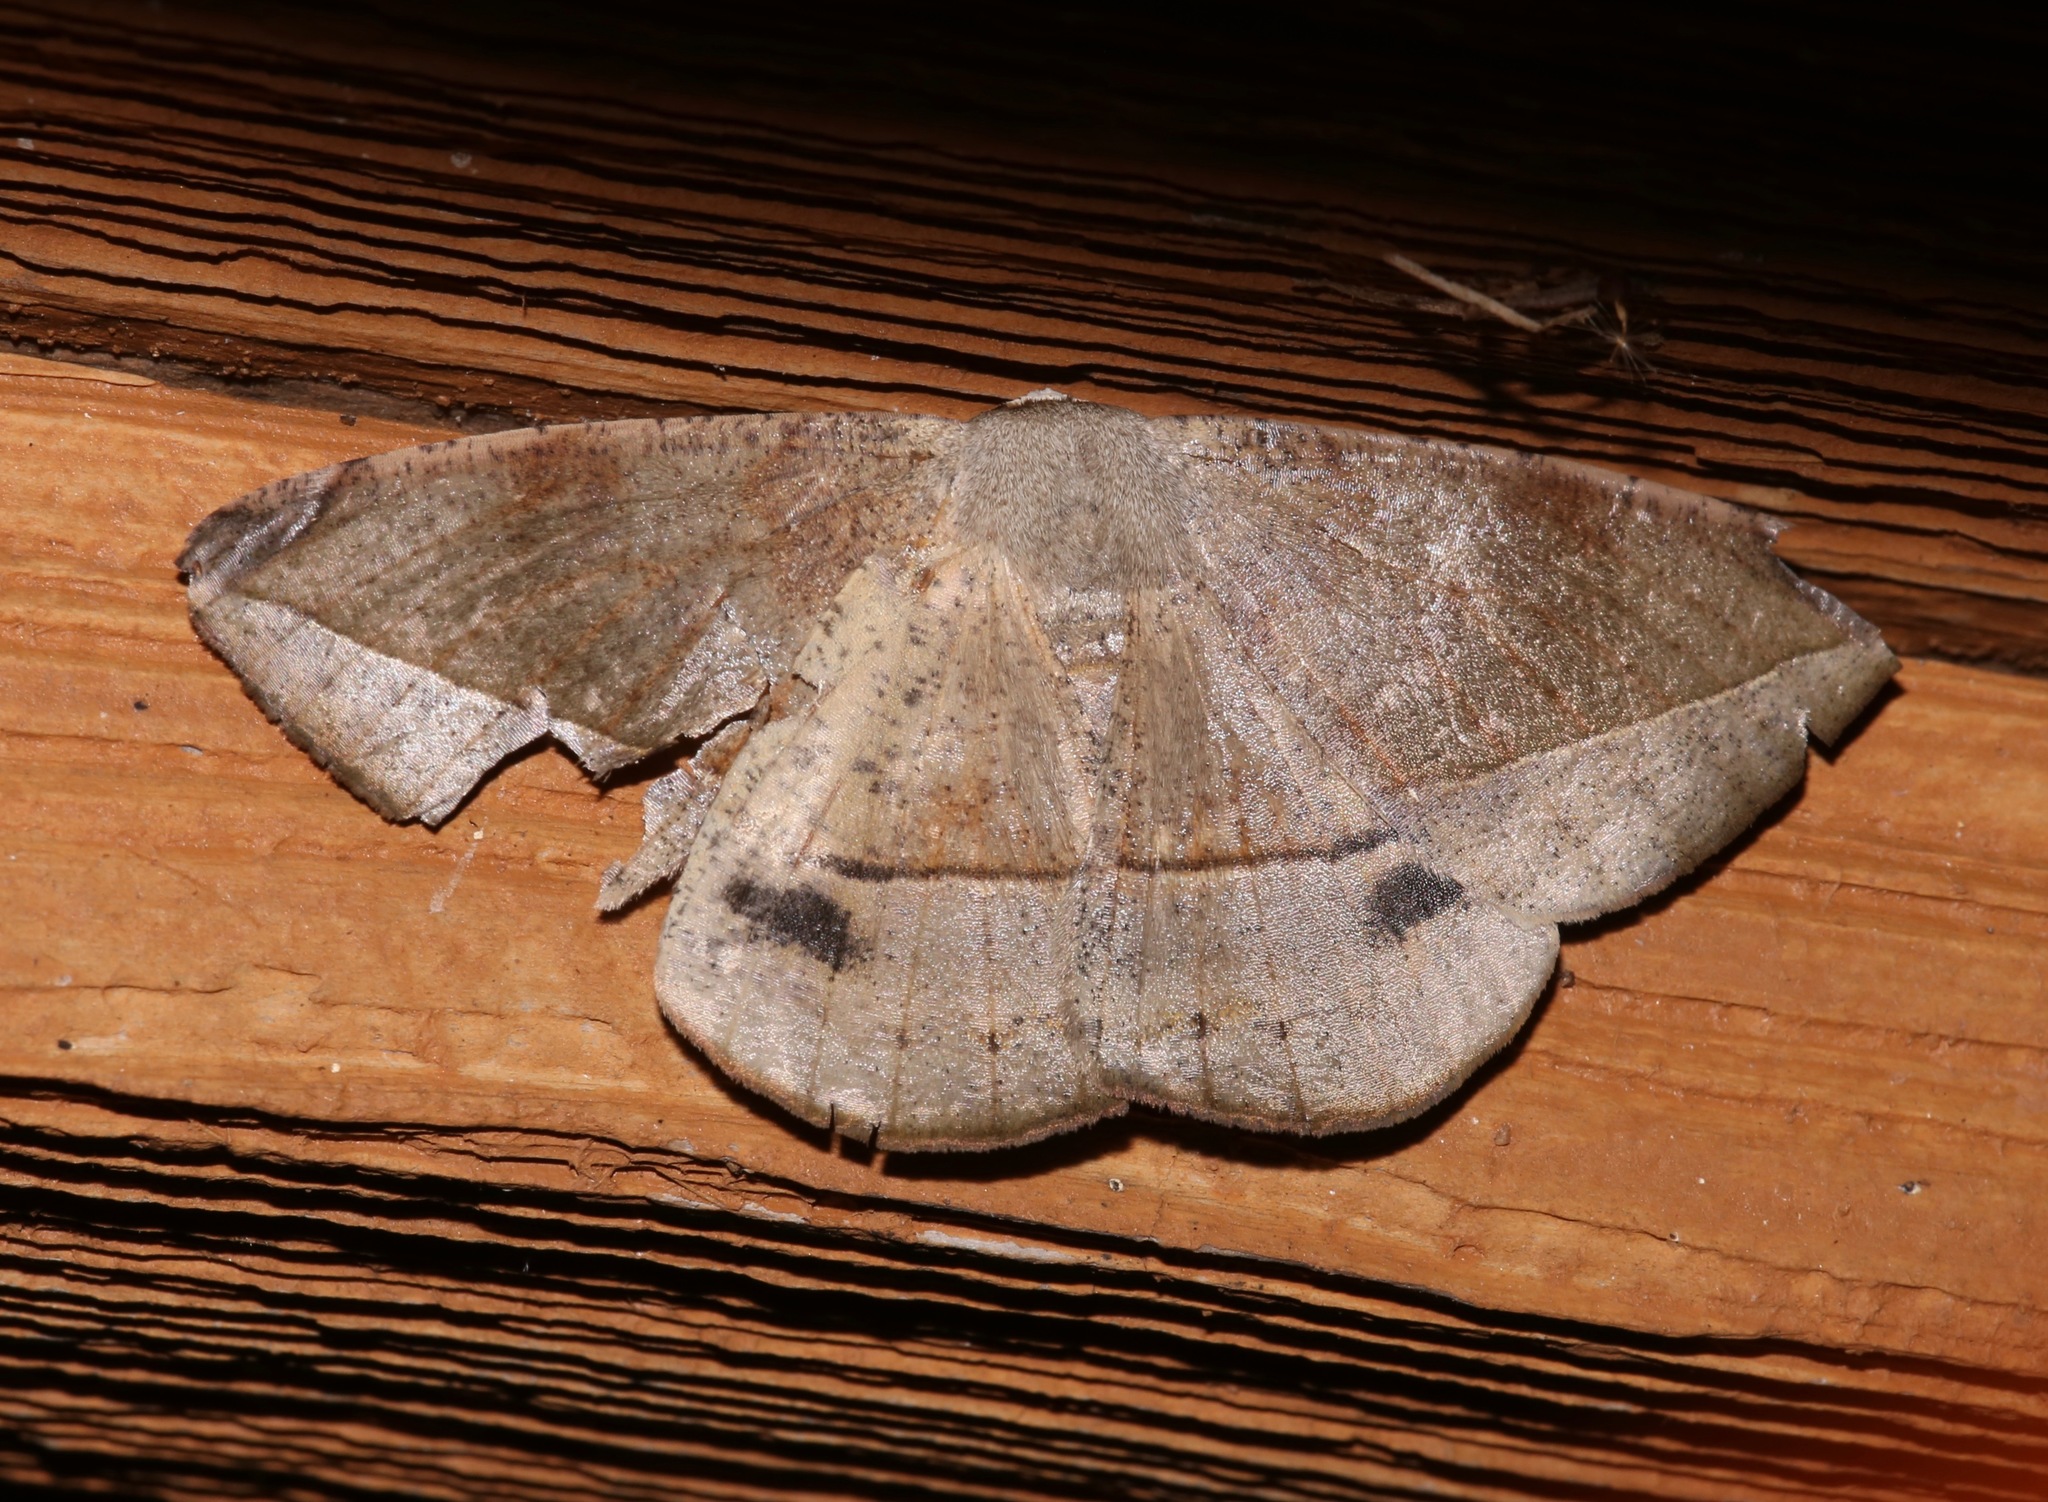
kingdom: Animalia
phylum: Arthropoda
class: Insecta
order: Lepidoptera
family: Geometridae
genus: Oxydia
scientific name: Oxydia vesulia
